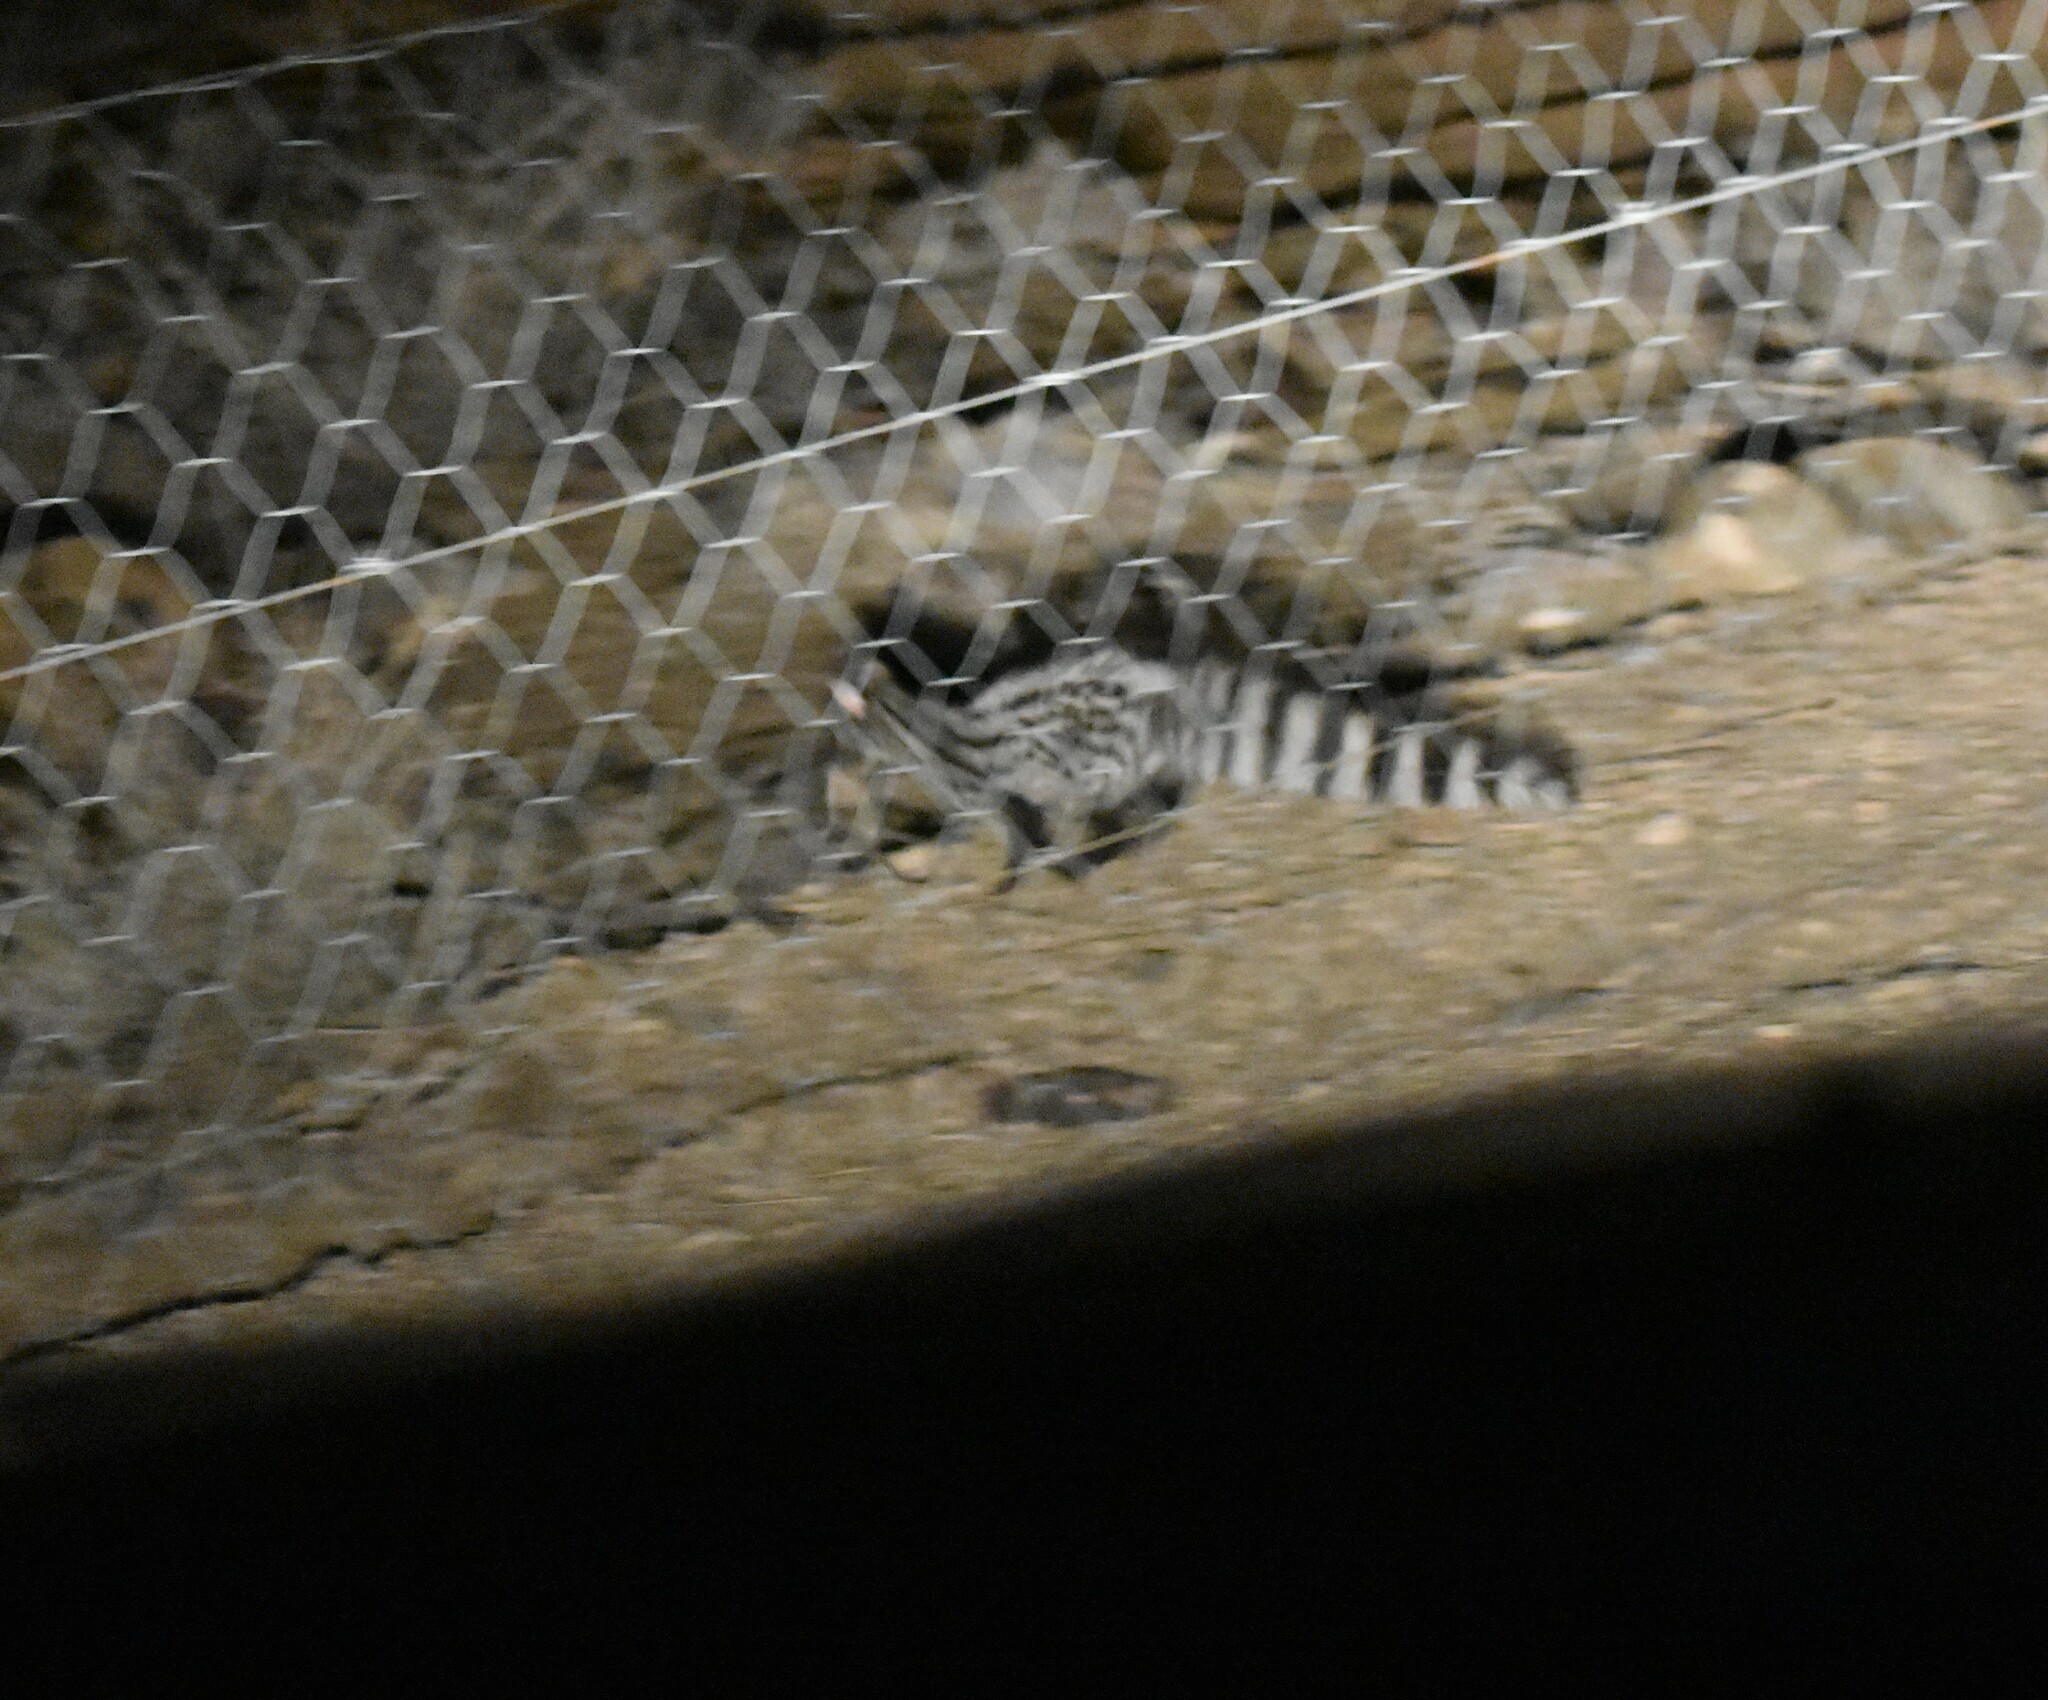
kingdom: Animalia
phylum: Chordata
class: Mammalia
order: Carnivora
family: Viverridae
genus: Genetta
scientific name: Genetta genetta
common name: Common genet
